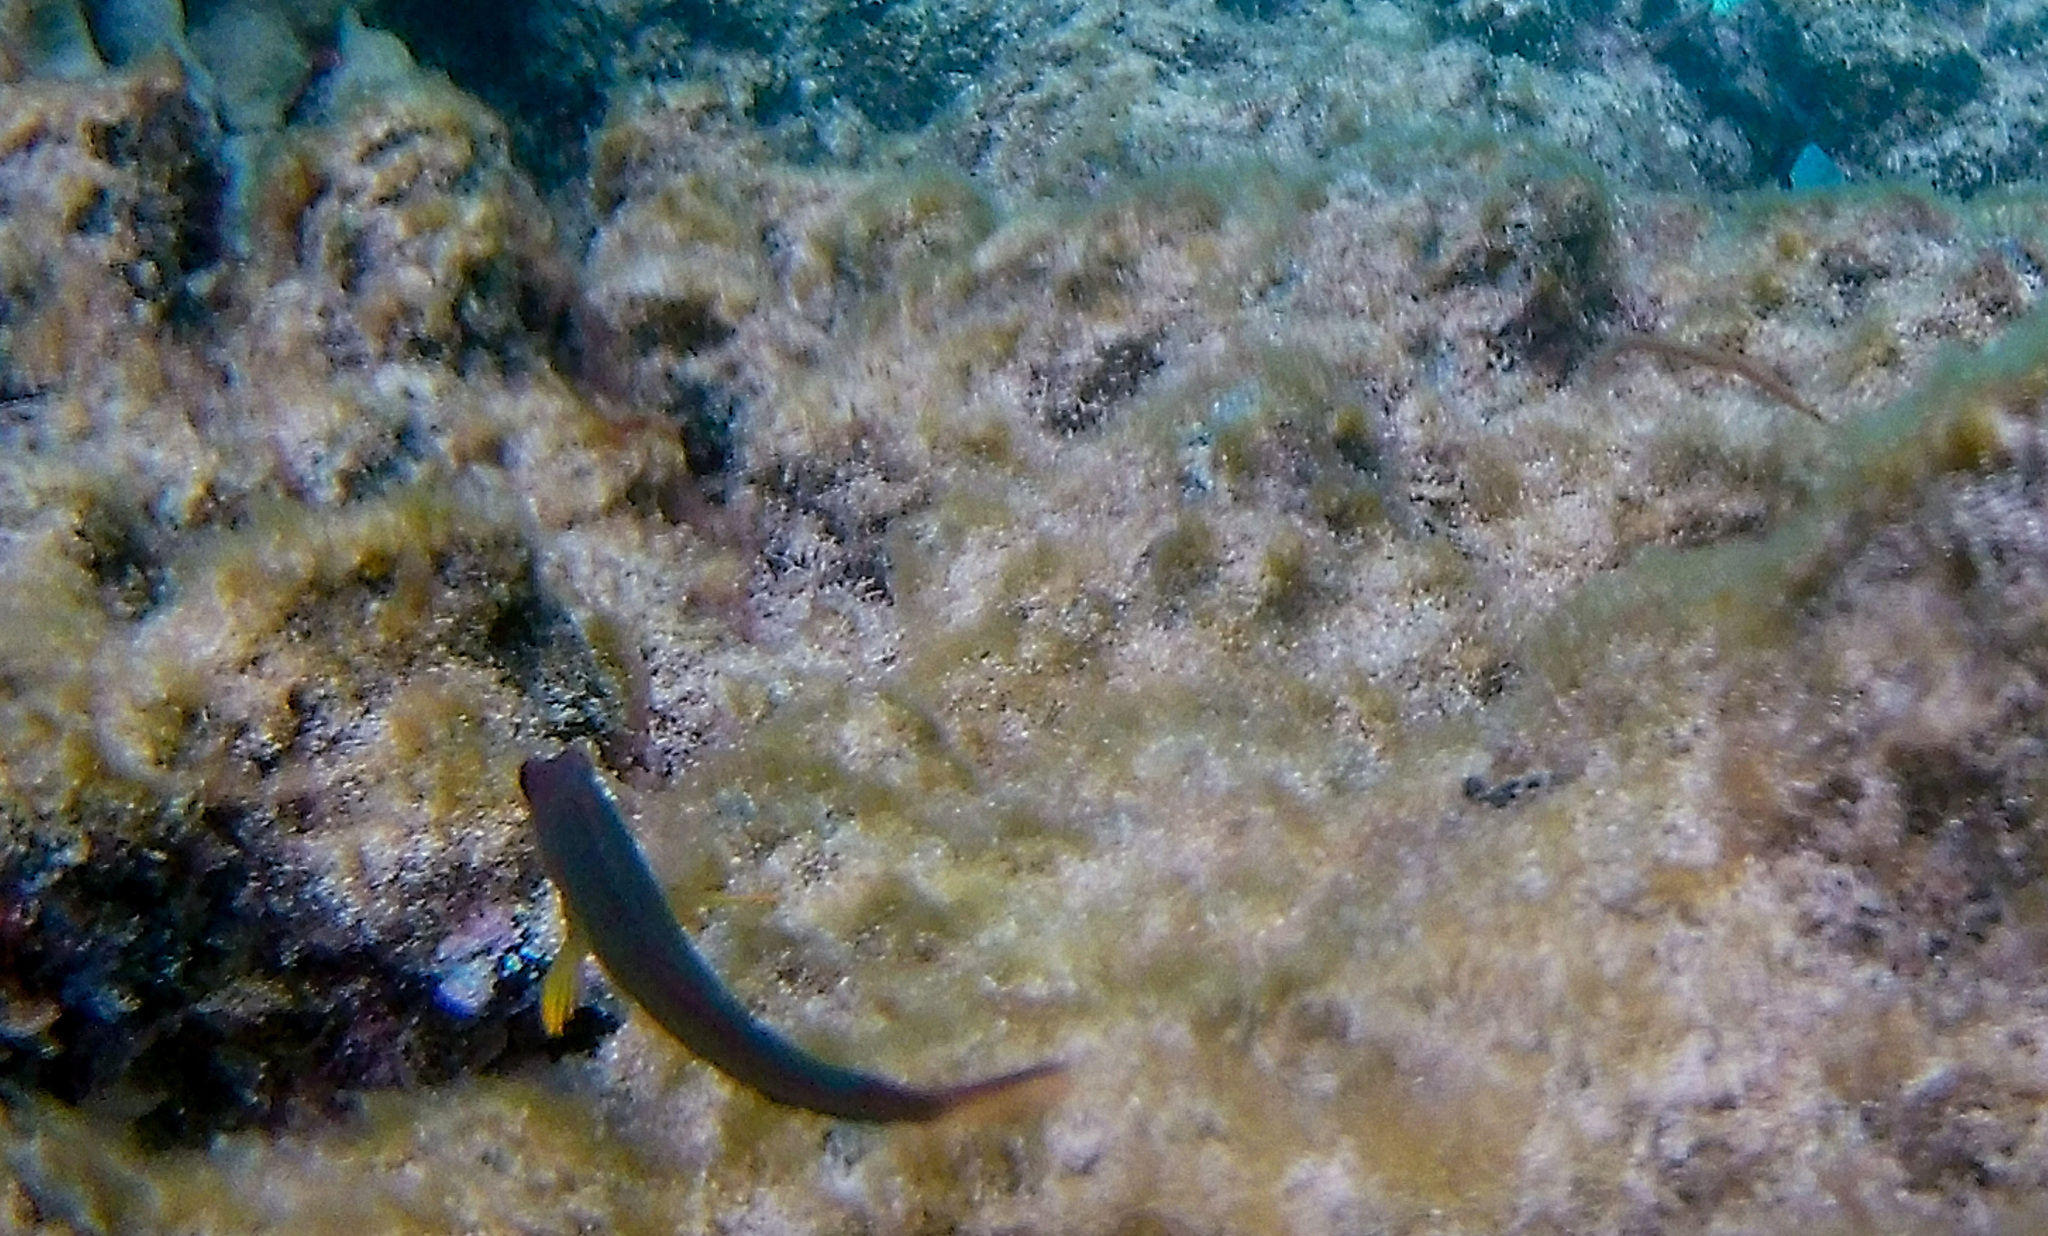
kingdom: Animalia
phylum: Chordata
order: Perciformes
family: Blenniidae
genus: Ophioblennius
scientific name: Ophioblennius trinitatis
